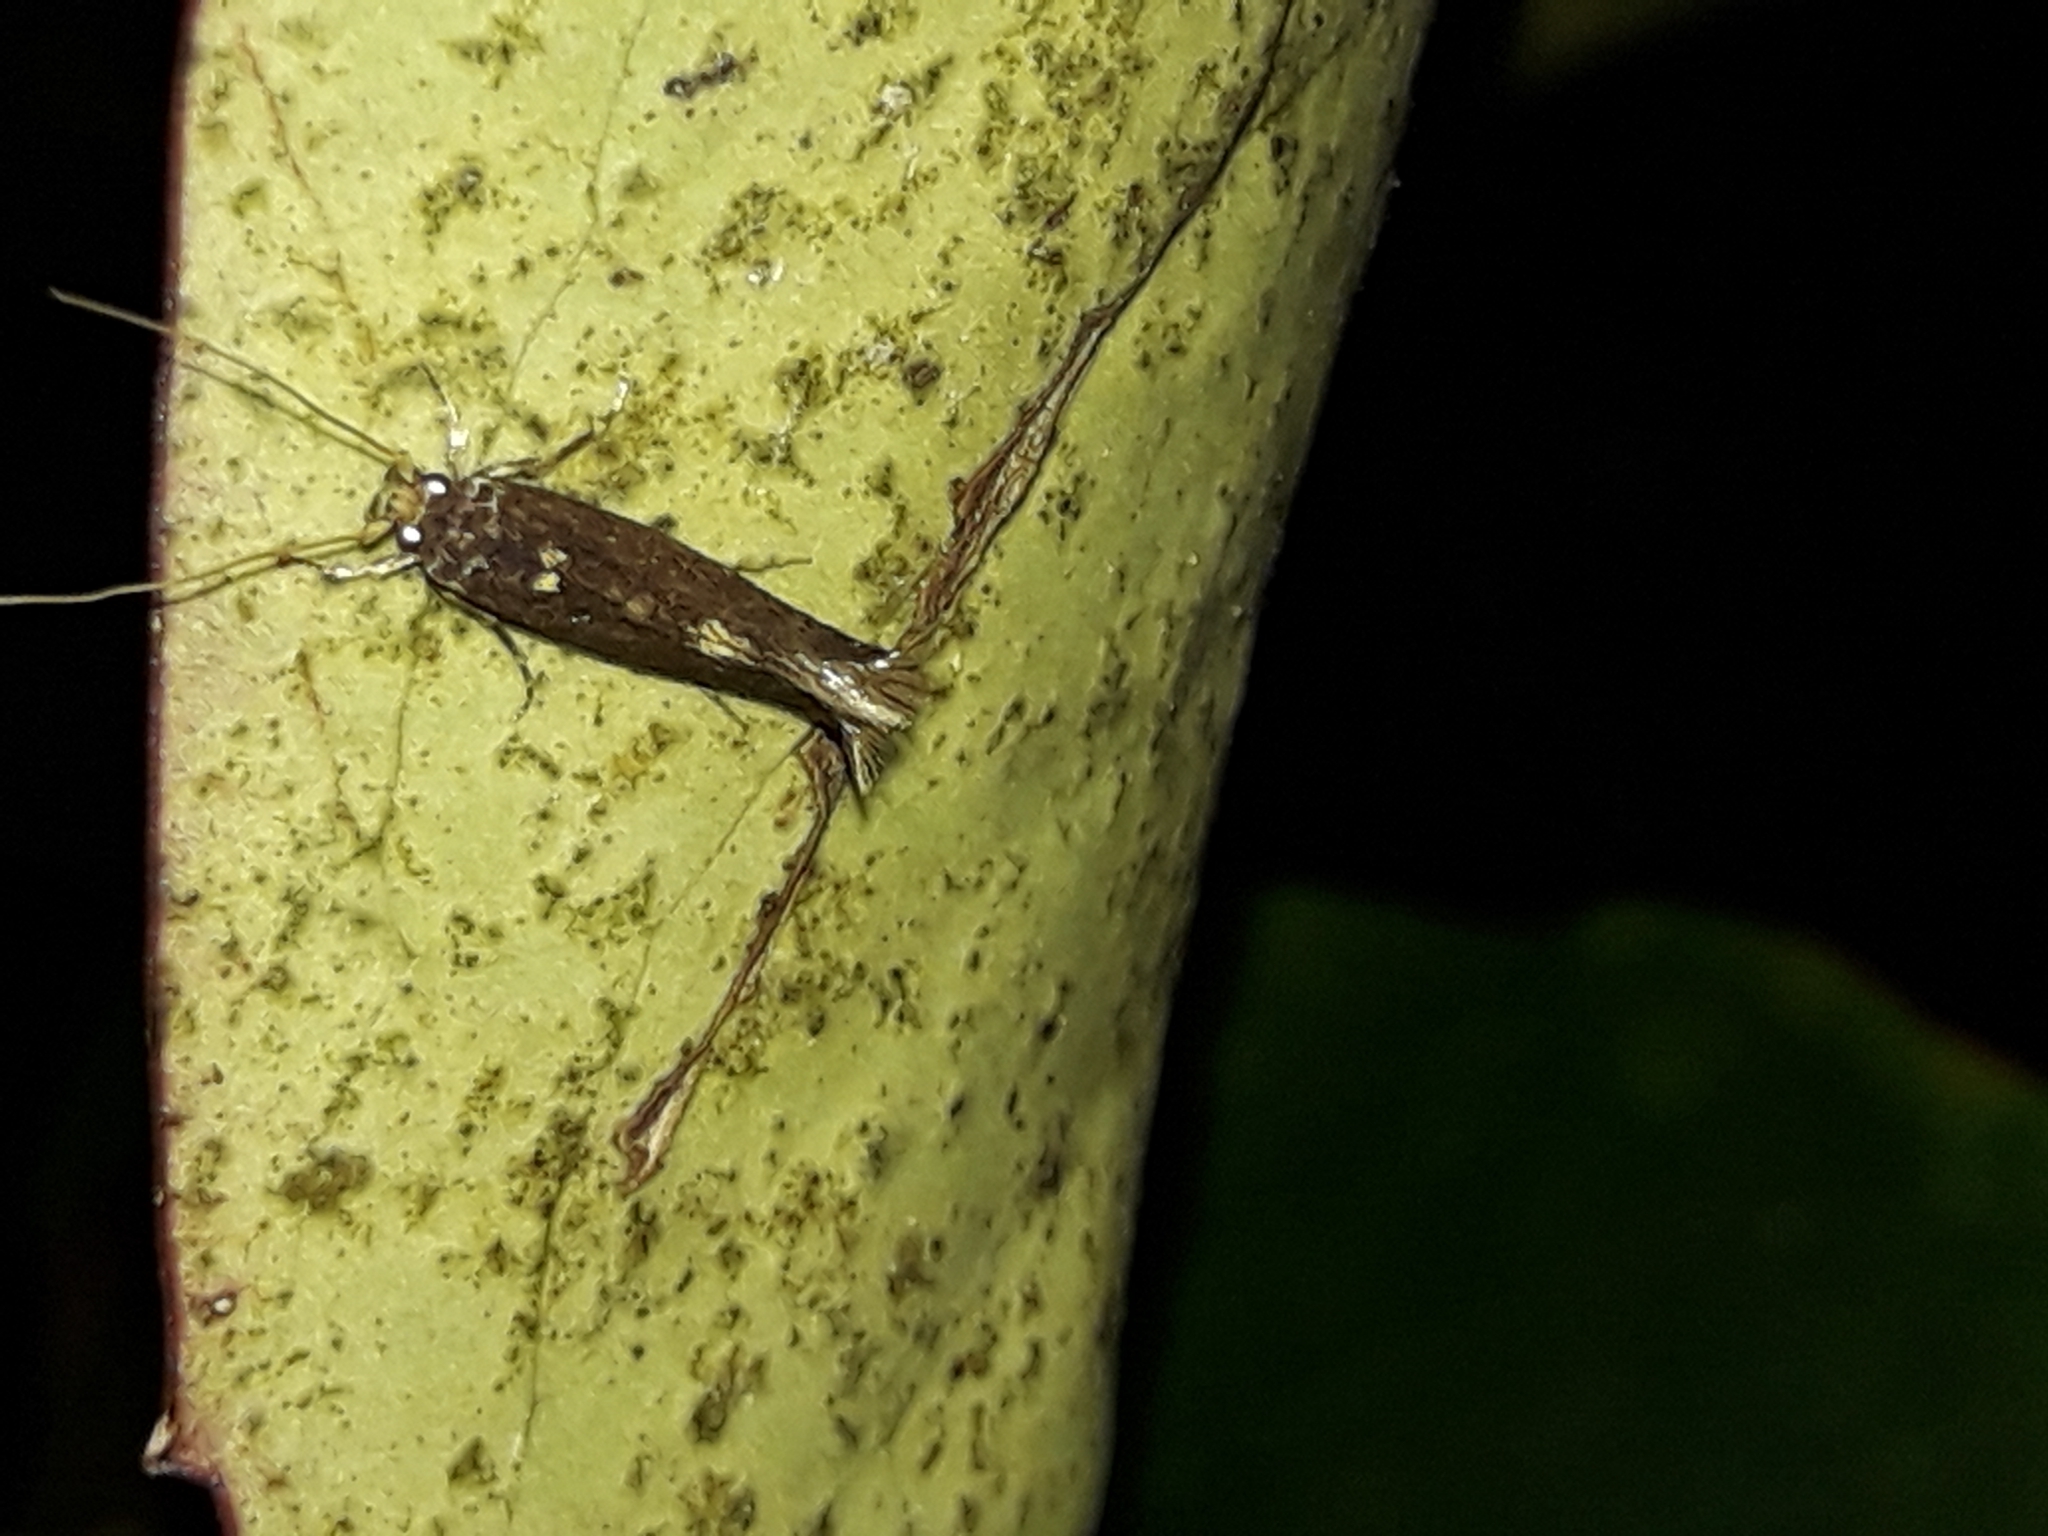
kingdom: Animalia
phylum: Arthropoda
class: Insecta
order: Lepidoptera
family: Tineidae
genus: Opogona
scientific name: Opogona omoscopa
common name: Moth
